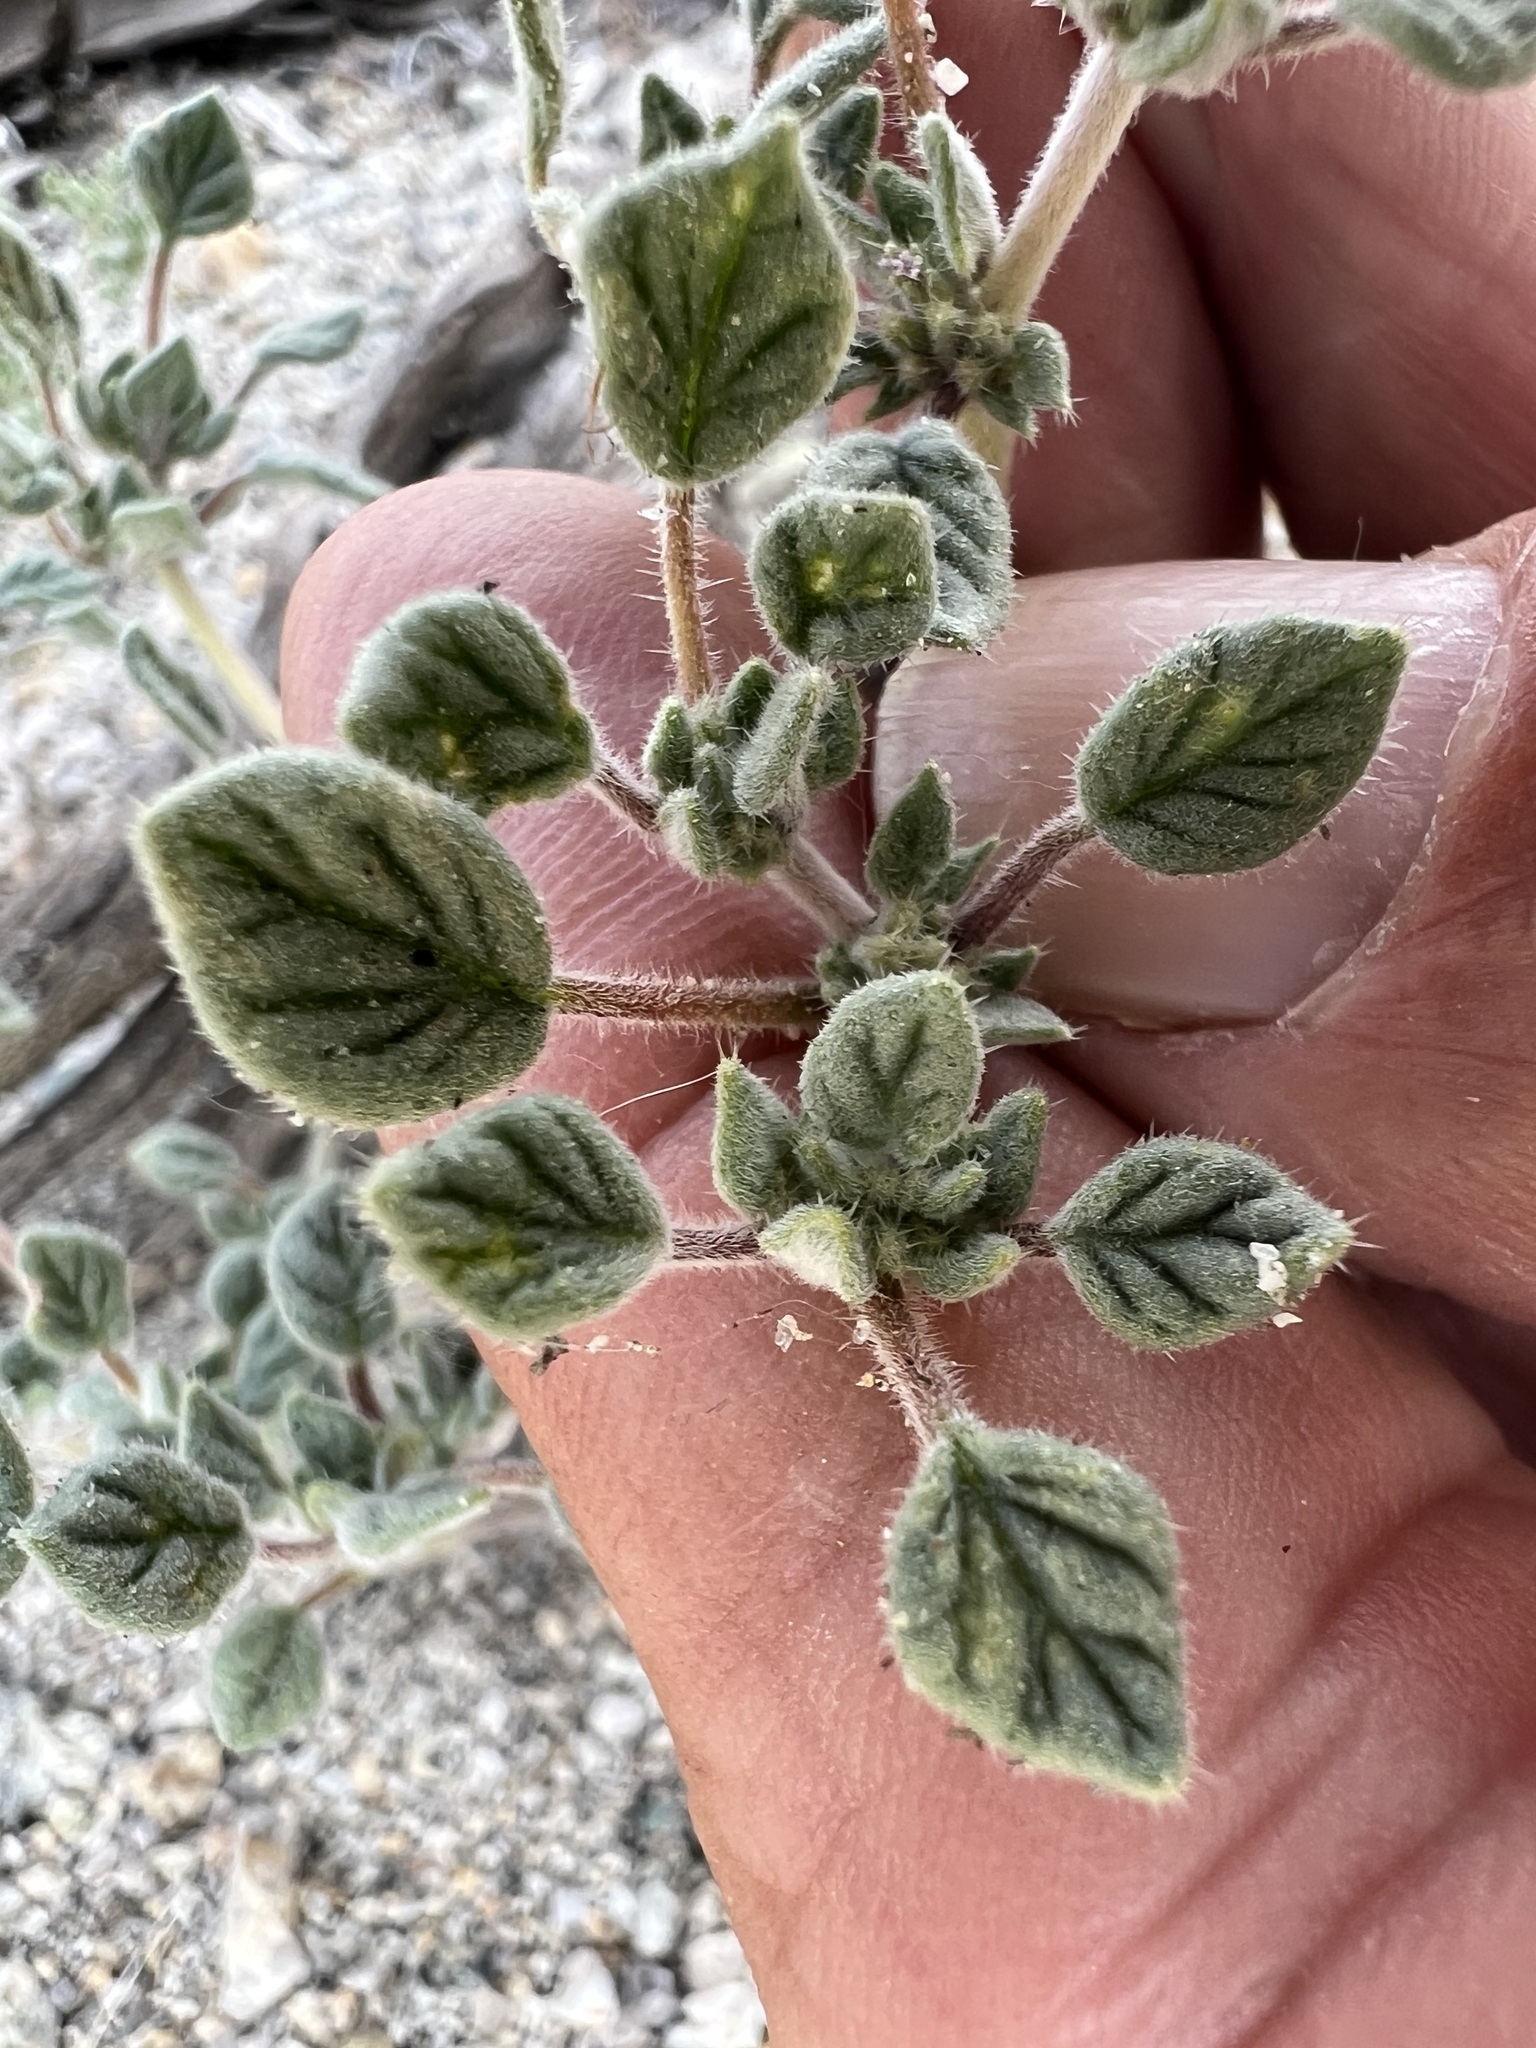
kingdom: Plantae
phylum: Tracheophyta
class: Magnoliopsida
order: Boraginales
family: Ehretiaceae
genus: Tiquilia
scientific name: Tiquilia nuttallii
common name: Rosette tiquilia
